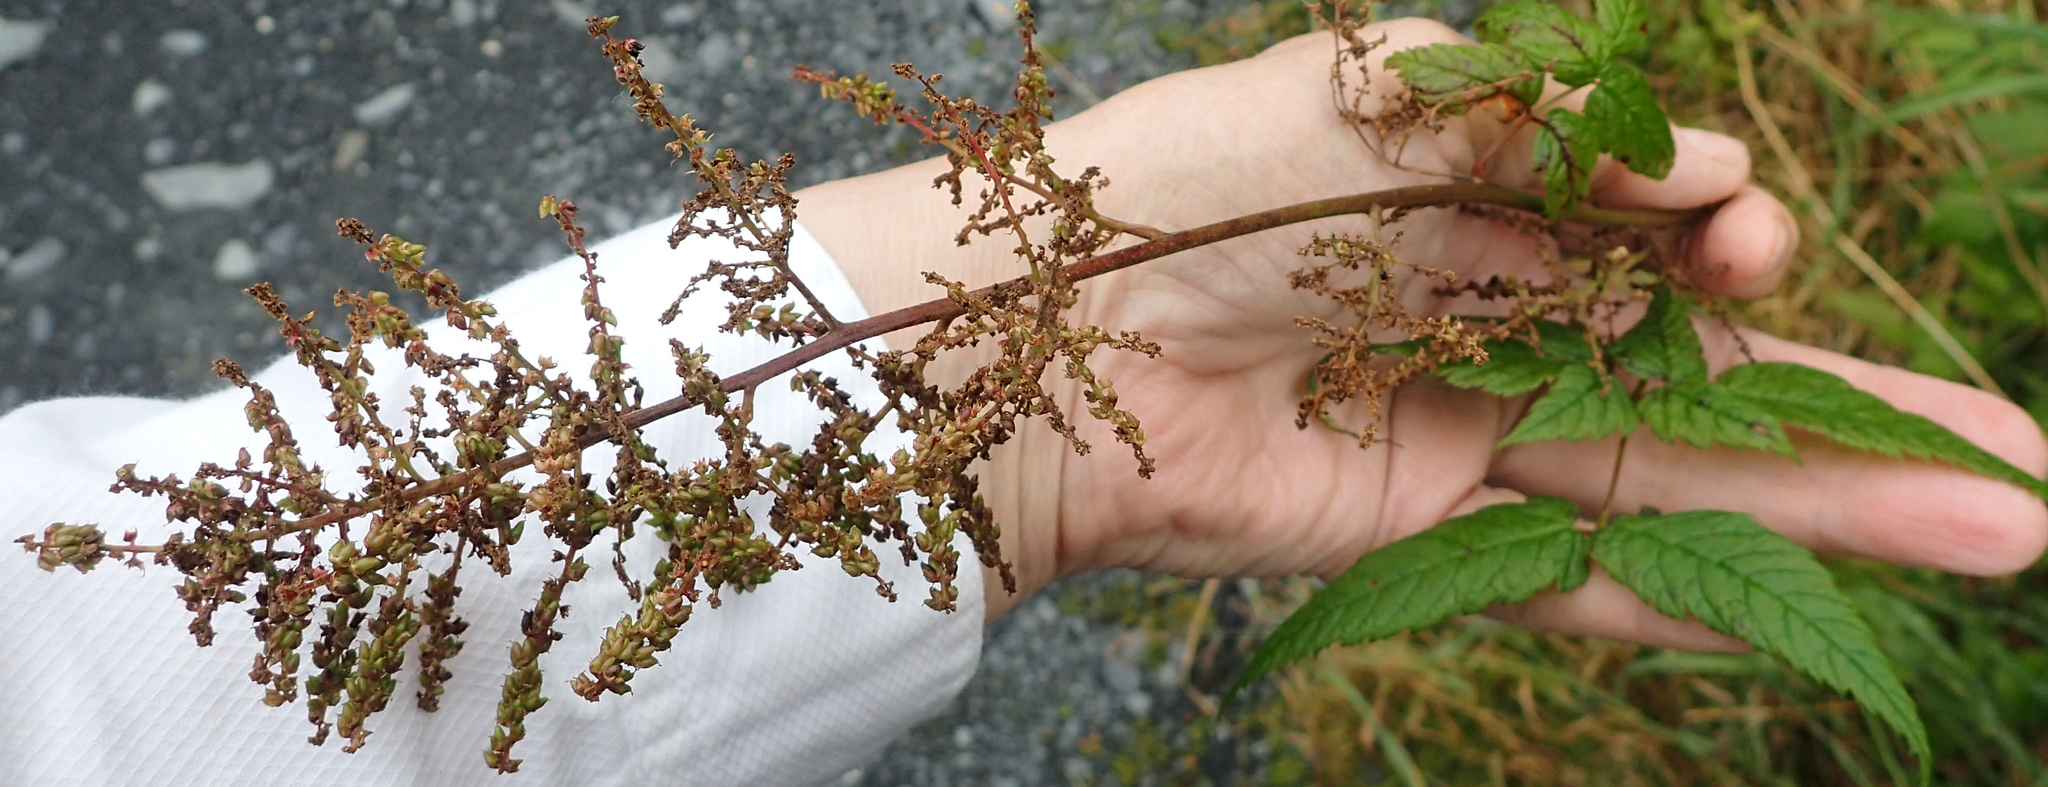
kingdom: Plantae
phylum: Tracheophyta
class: Magnoliopsida
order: Rosales
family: Rosaceae
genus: Aruncus
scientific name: Aruncus dioicus
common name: Buck's-beard
